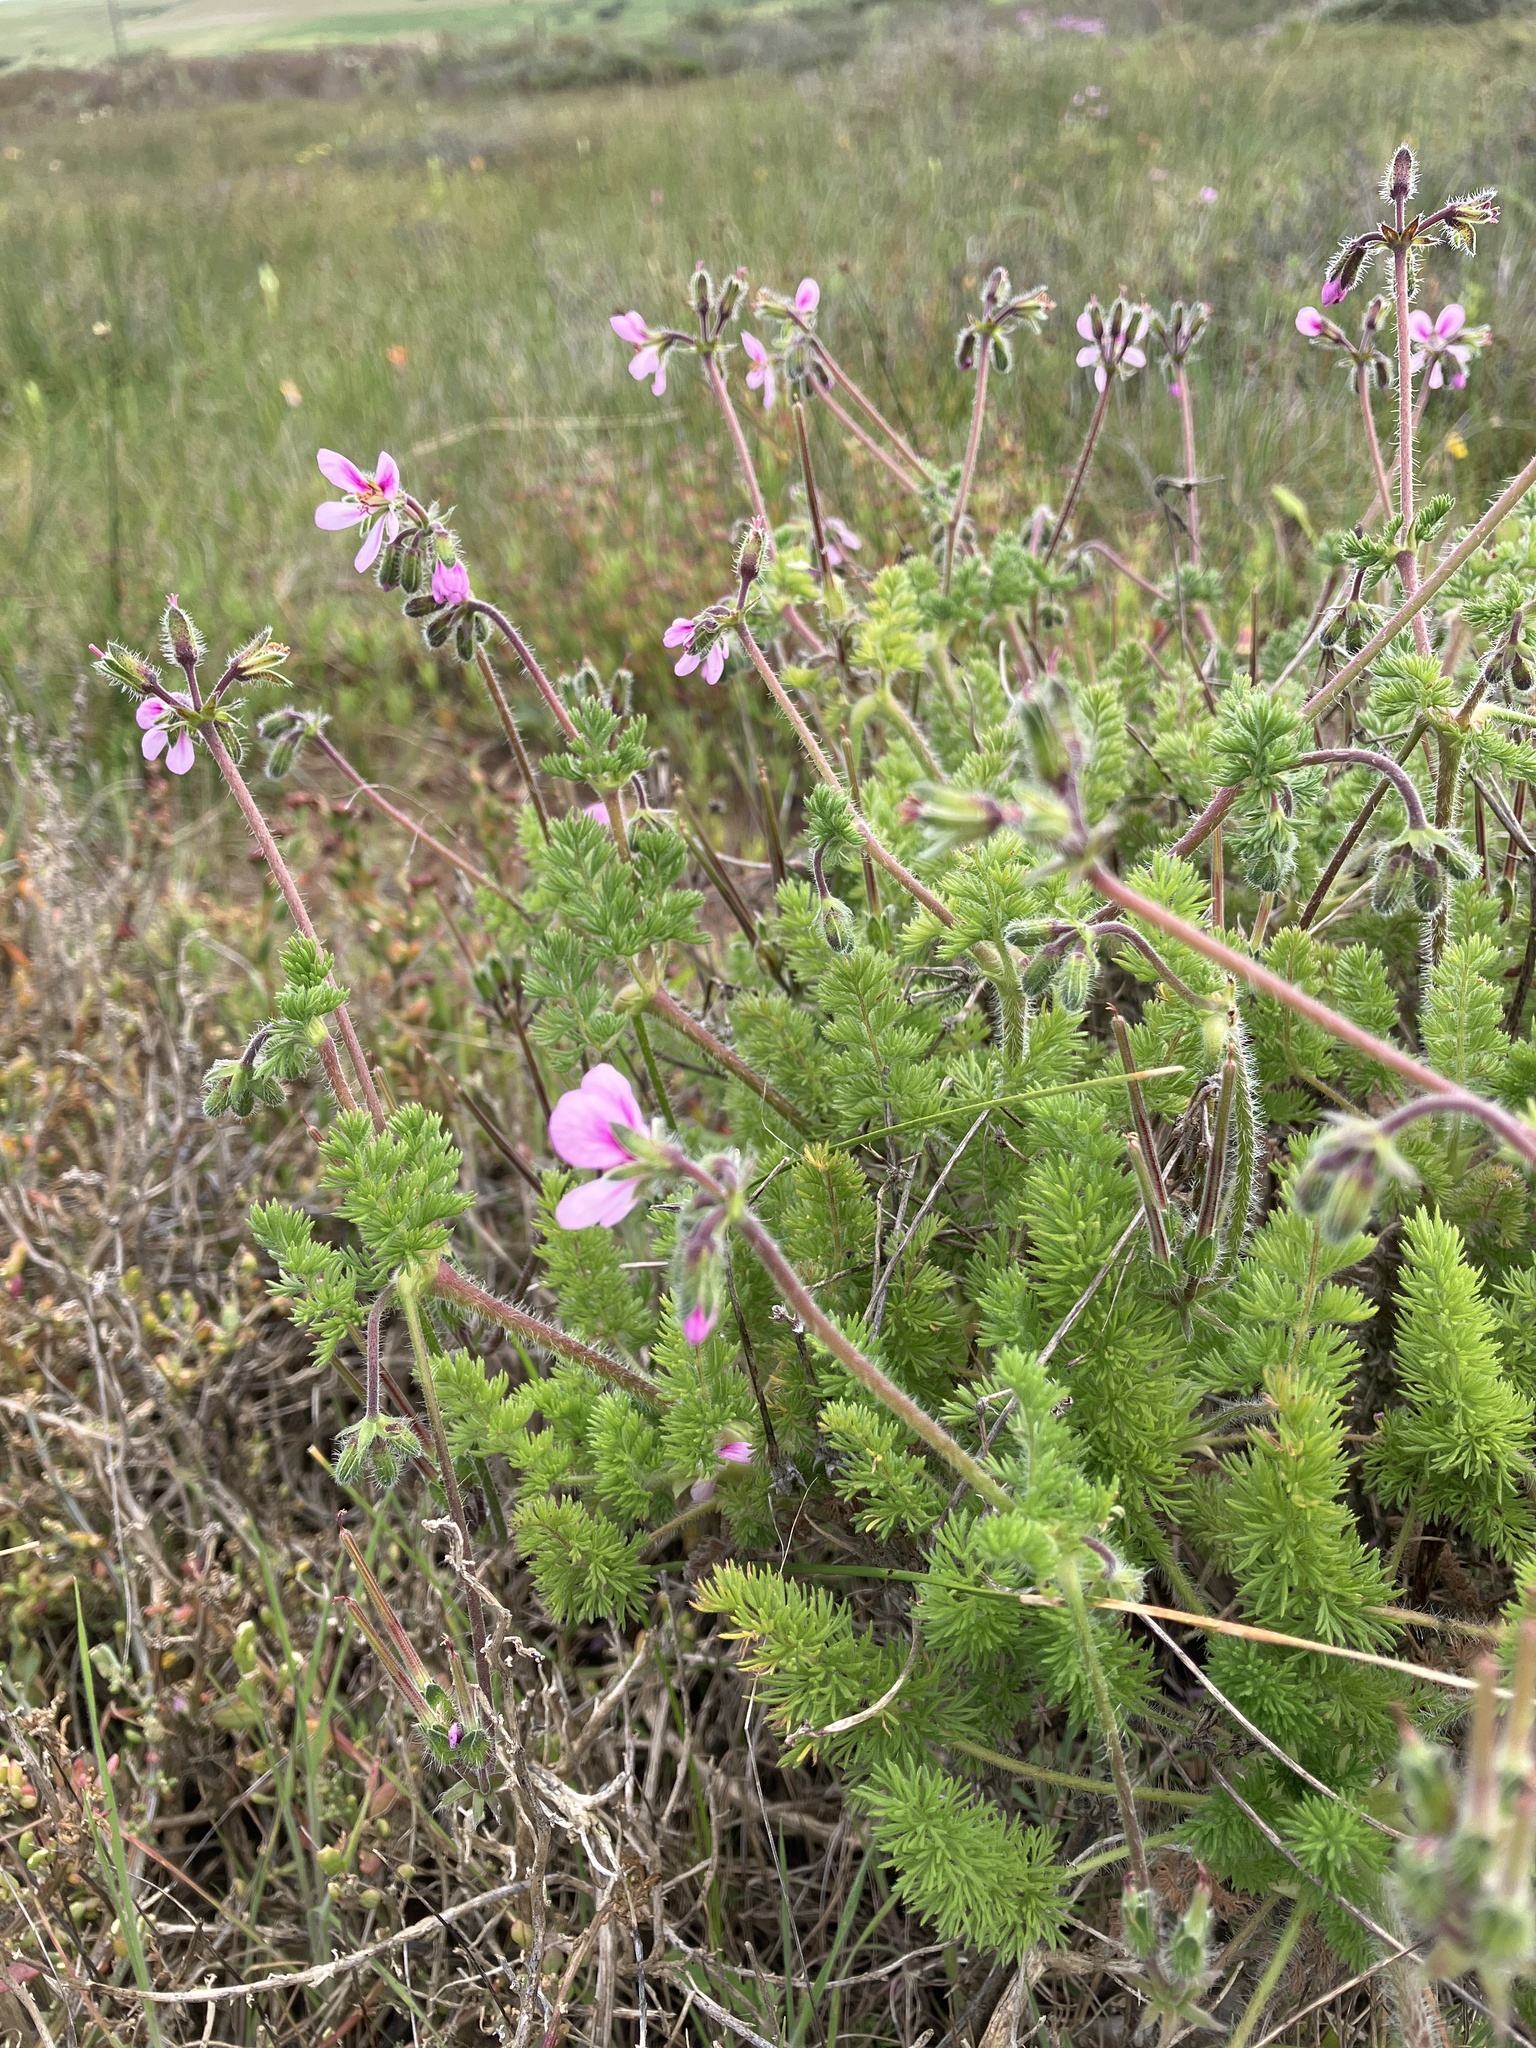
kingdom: Plantae
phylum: Tracheophyta
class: Magnoliopsida
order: Geraniales
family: Geraniaceae
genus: Pelargonium
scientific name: Pelargonium hirtum
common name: Fine-leaf pelargonium
